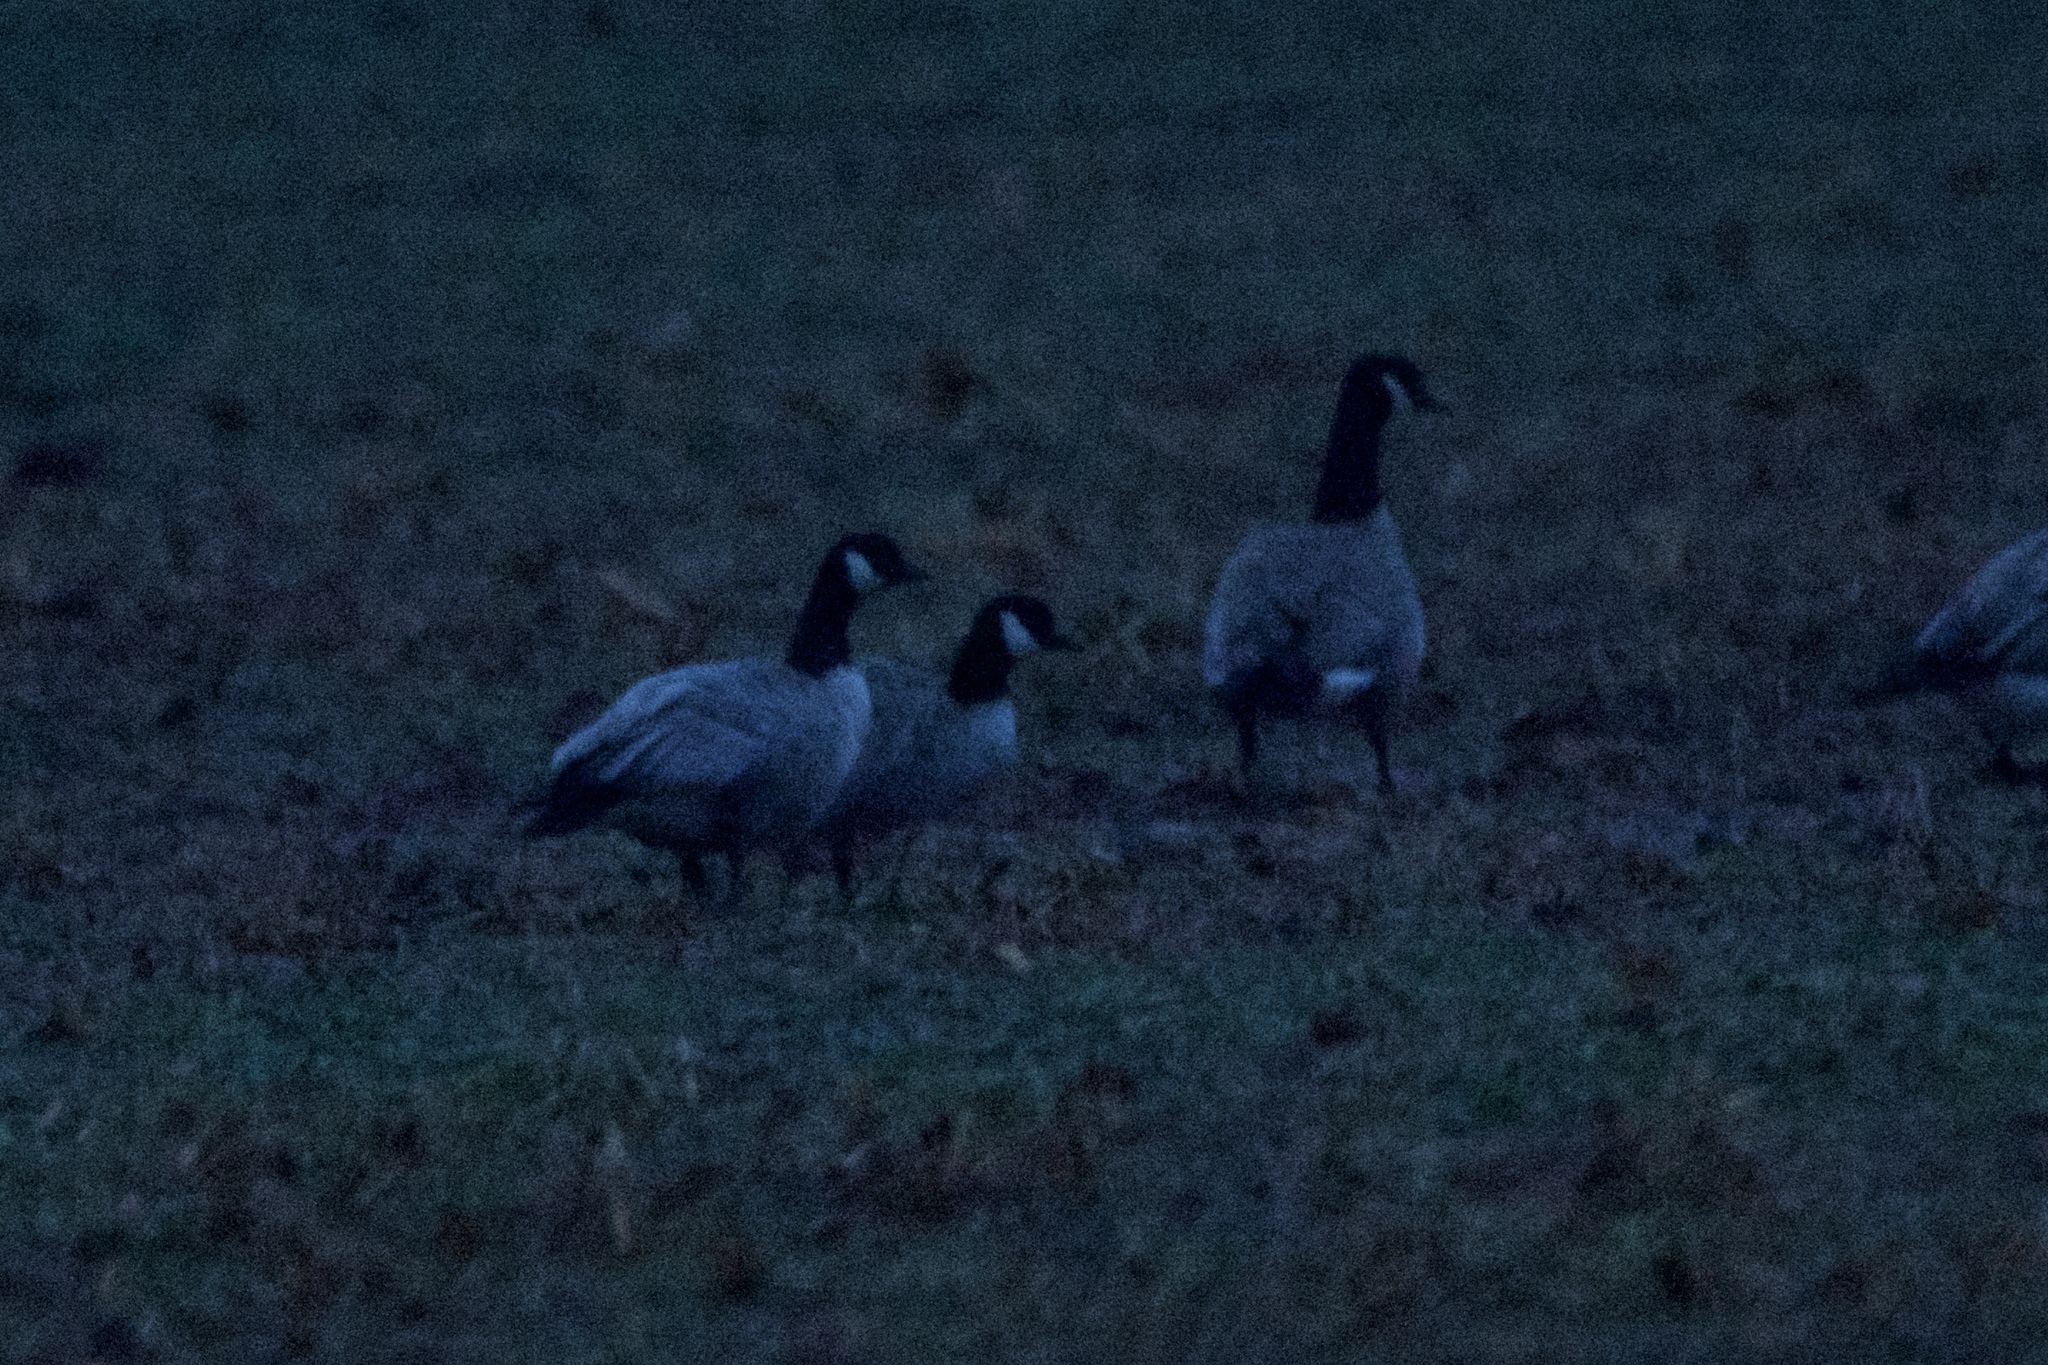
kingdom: Animalia
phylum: Chordata
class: Aves
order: Anseriformes
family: Anatidae
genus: Branta
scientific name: Branta hutchinsii
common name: Cackling goose
